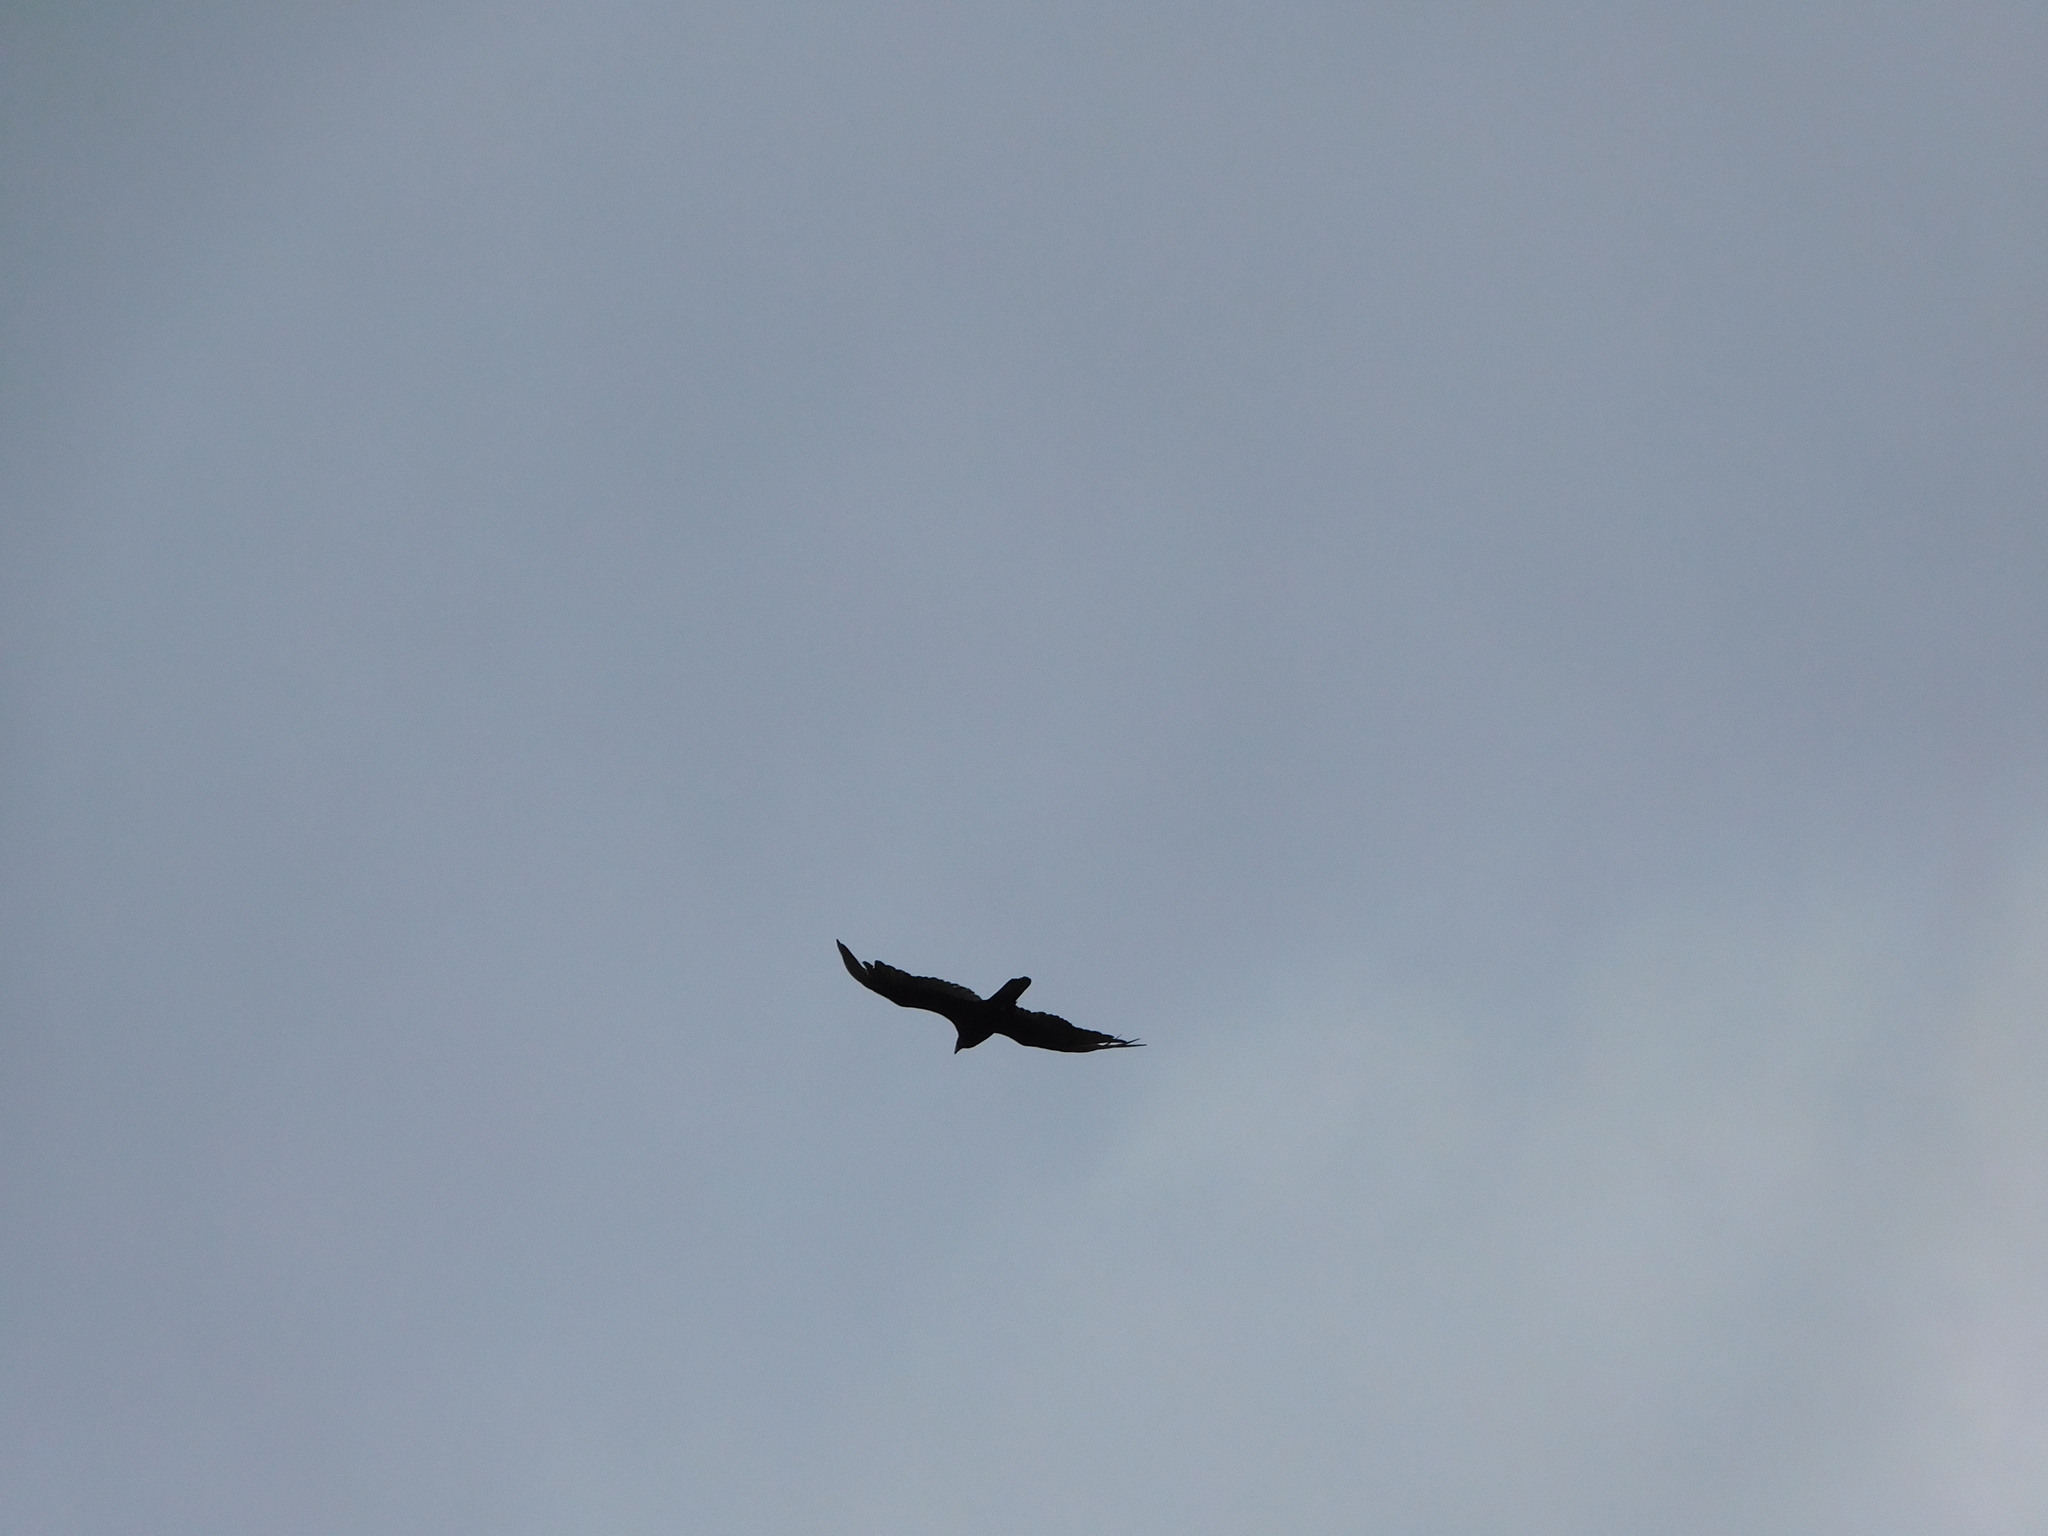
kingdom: Animalia
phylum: Chordata
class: Aves
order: Accipitriformes
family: Cathartidae
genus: Cathartes
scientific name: Cathartes aura
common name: Turkey vulture
